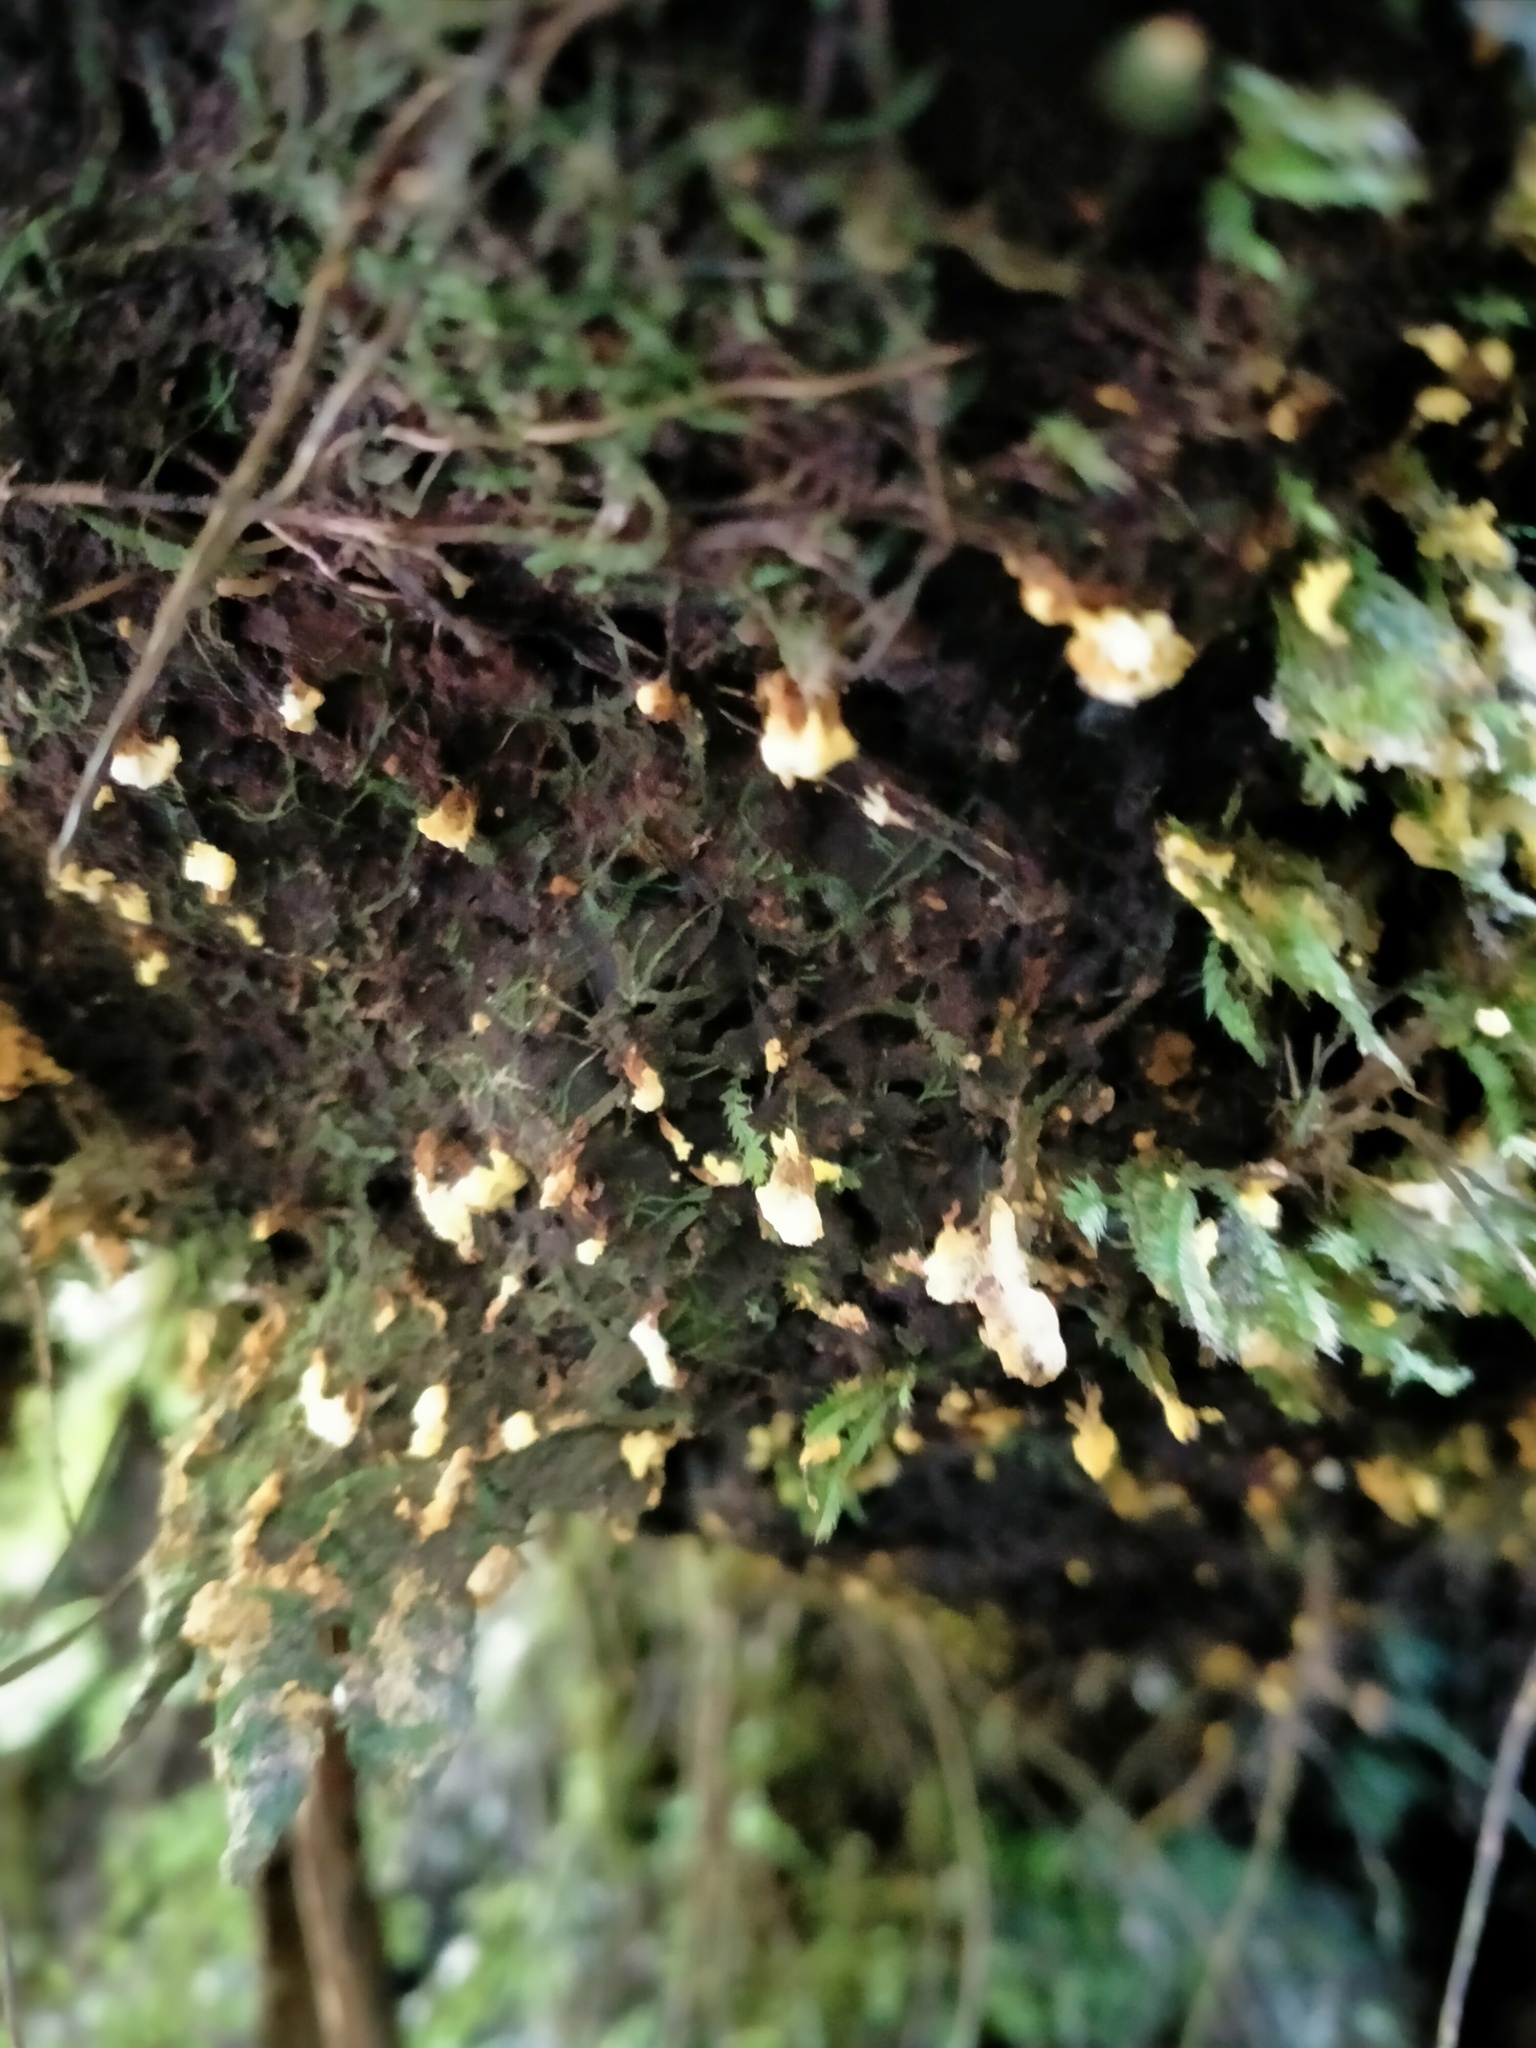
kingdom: Fungi
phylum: Basidiomycota
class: Agaricomycetes
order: Hymenochaetales
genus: Muscinupta
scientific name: Muscinupta laevis
